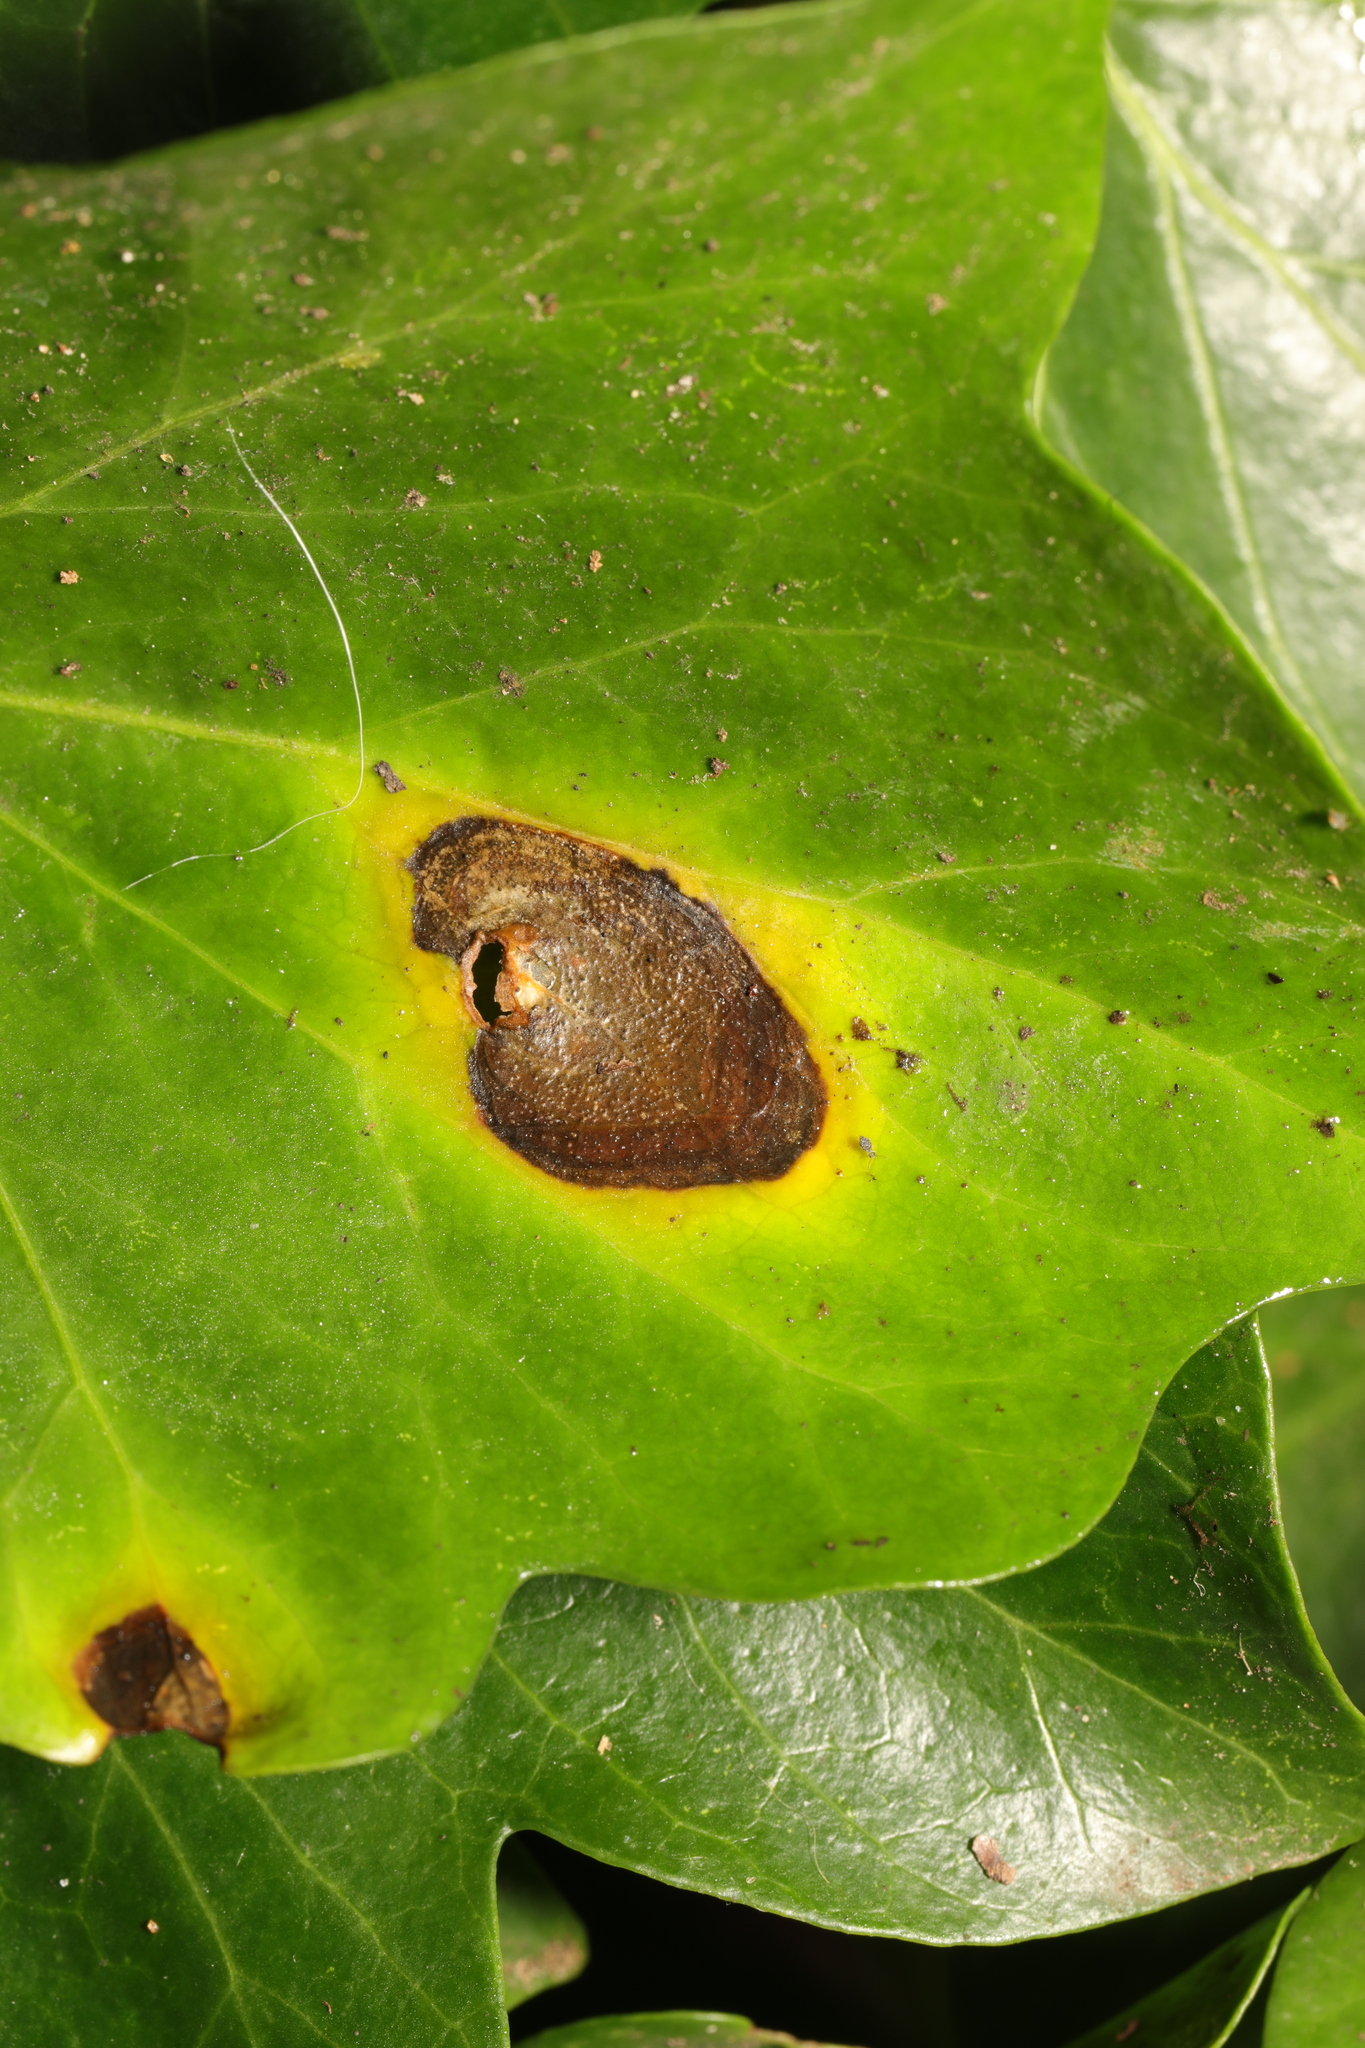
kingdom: Fungi
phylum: Ascomycota
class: Dothideomycetes
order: Pleosporales
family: Didymellaceae
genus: Boeremia
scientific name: Boeremia hedericola
